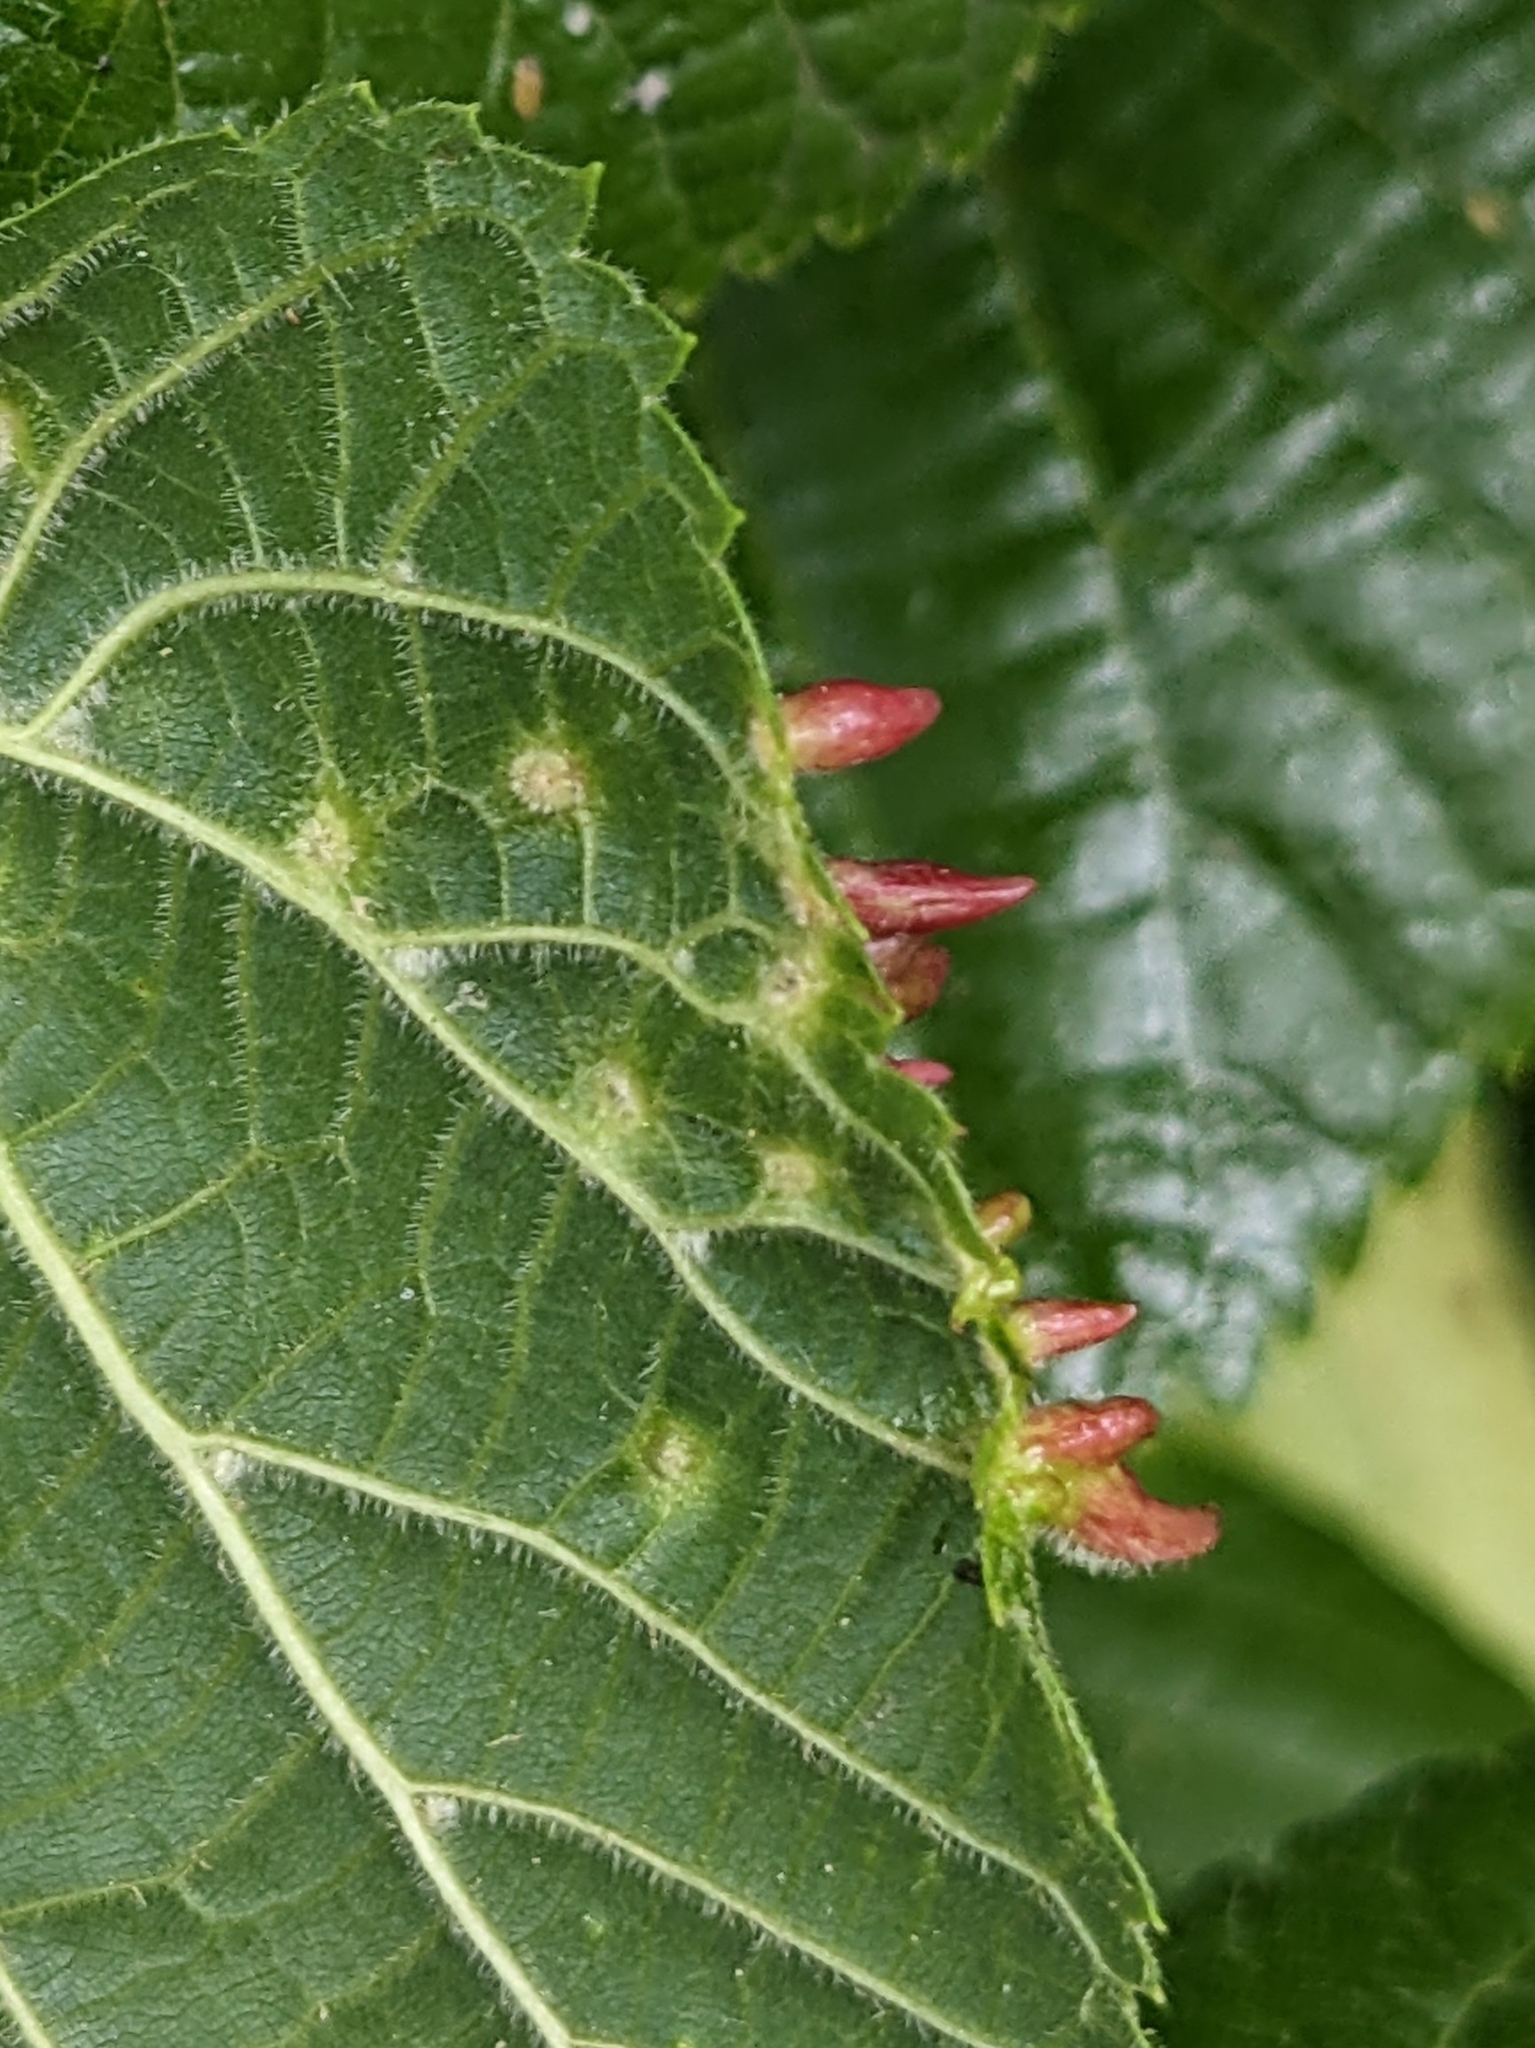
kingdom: Animalia
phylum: Arthropoda
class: Arachnida
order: Trombidiformes
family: Eriophyidae
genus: Eriophyes
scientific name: Eriophyes tiliae
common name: Red nail gall mite
